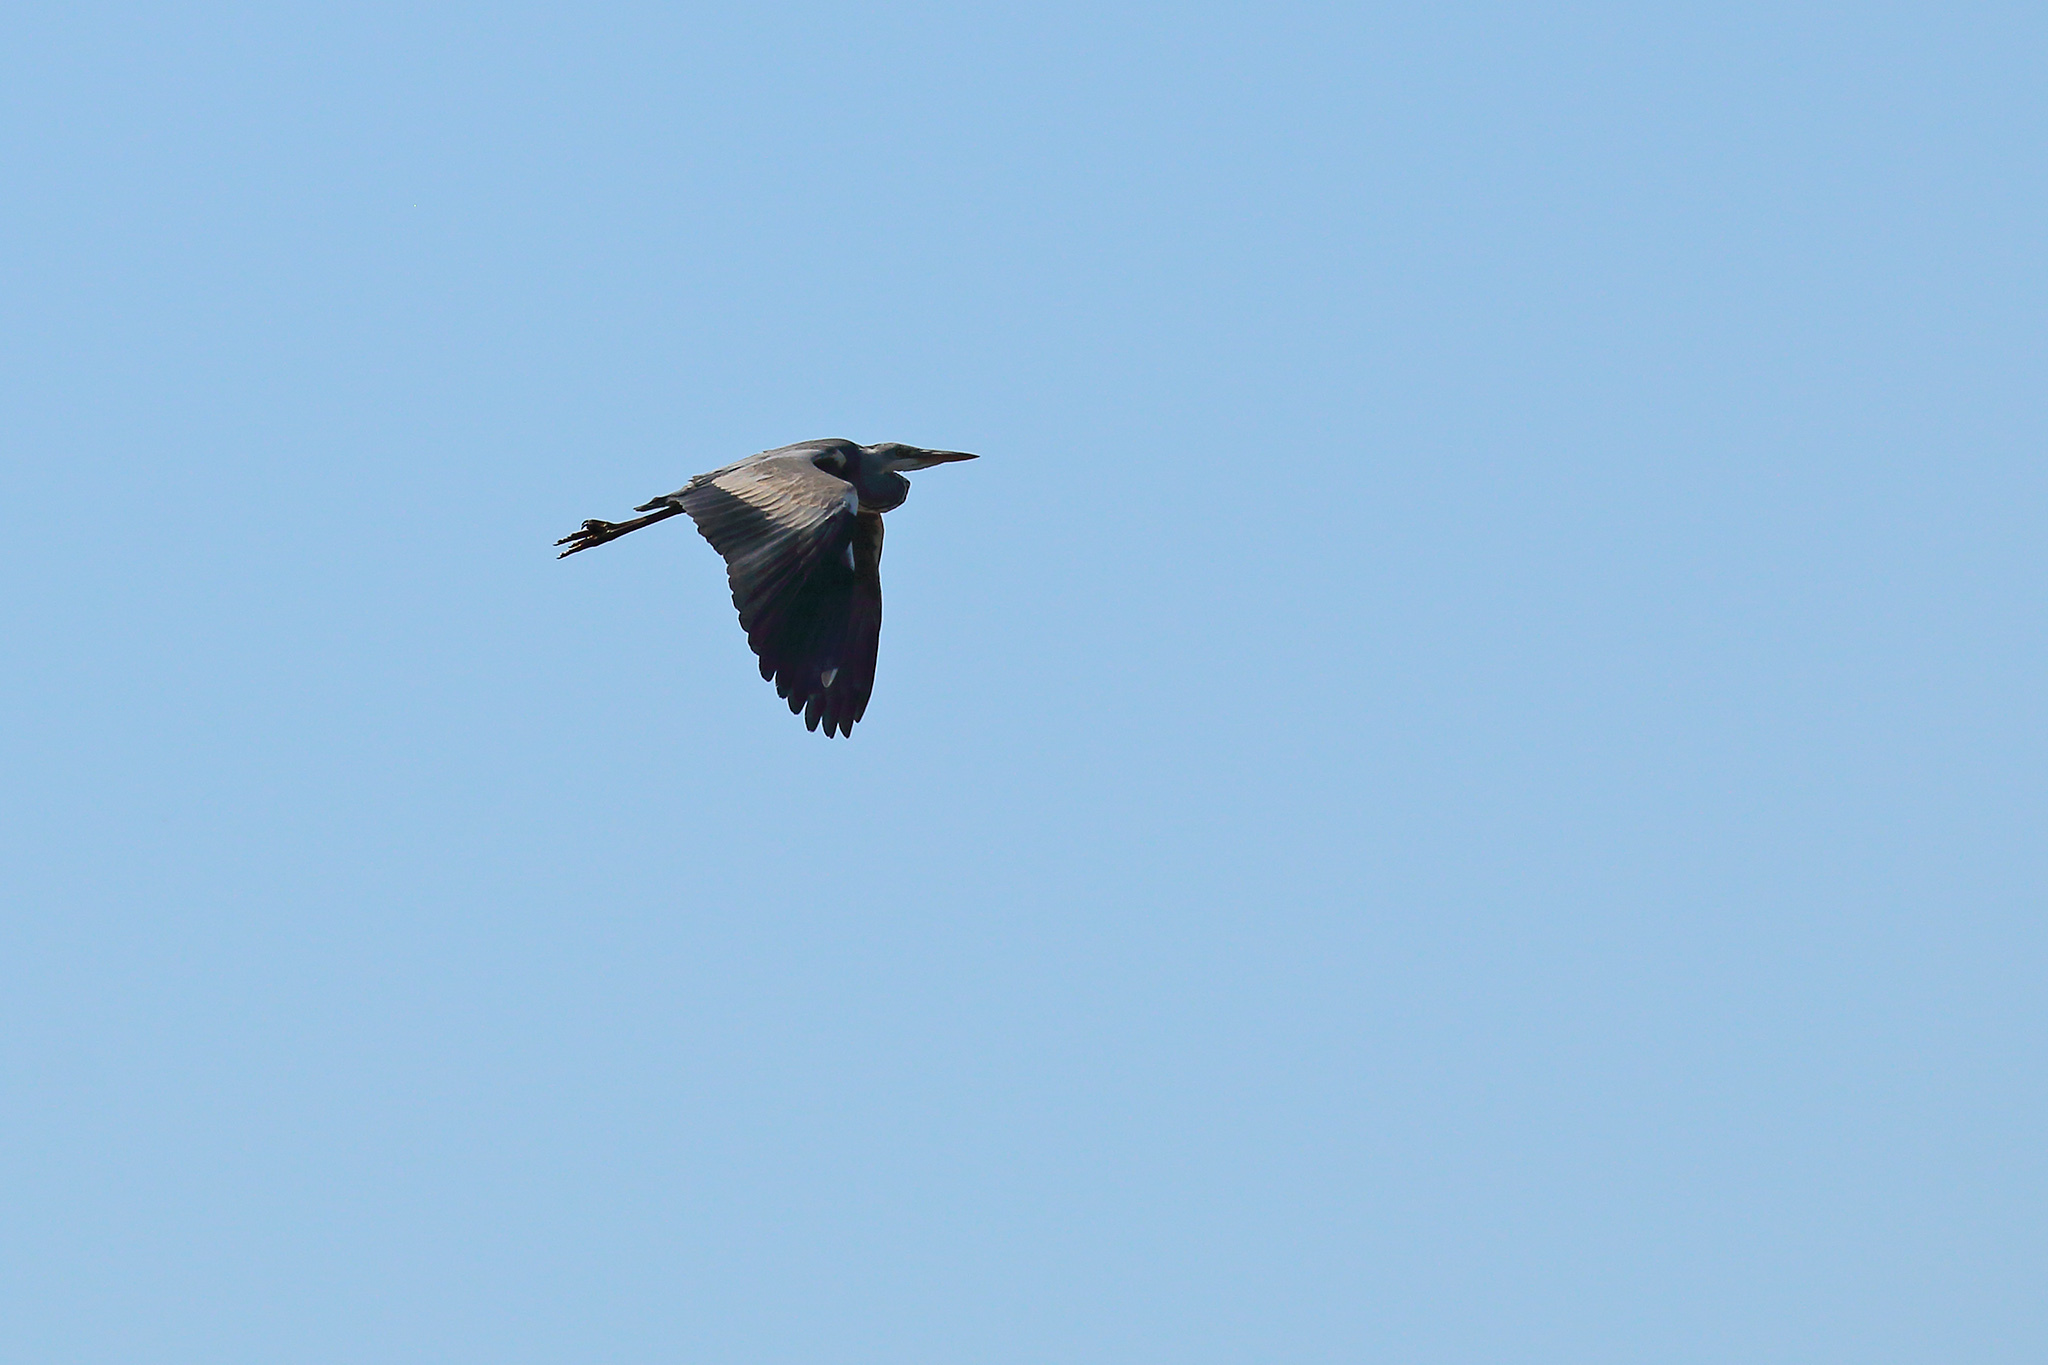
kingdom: Animalia
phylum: Chordata
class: Aves
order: Pelecaniformes
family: Ardeidae
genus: Ardea
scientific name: Ardea cinerea
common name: Grey heron
